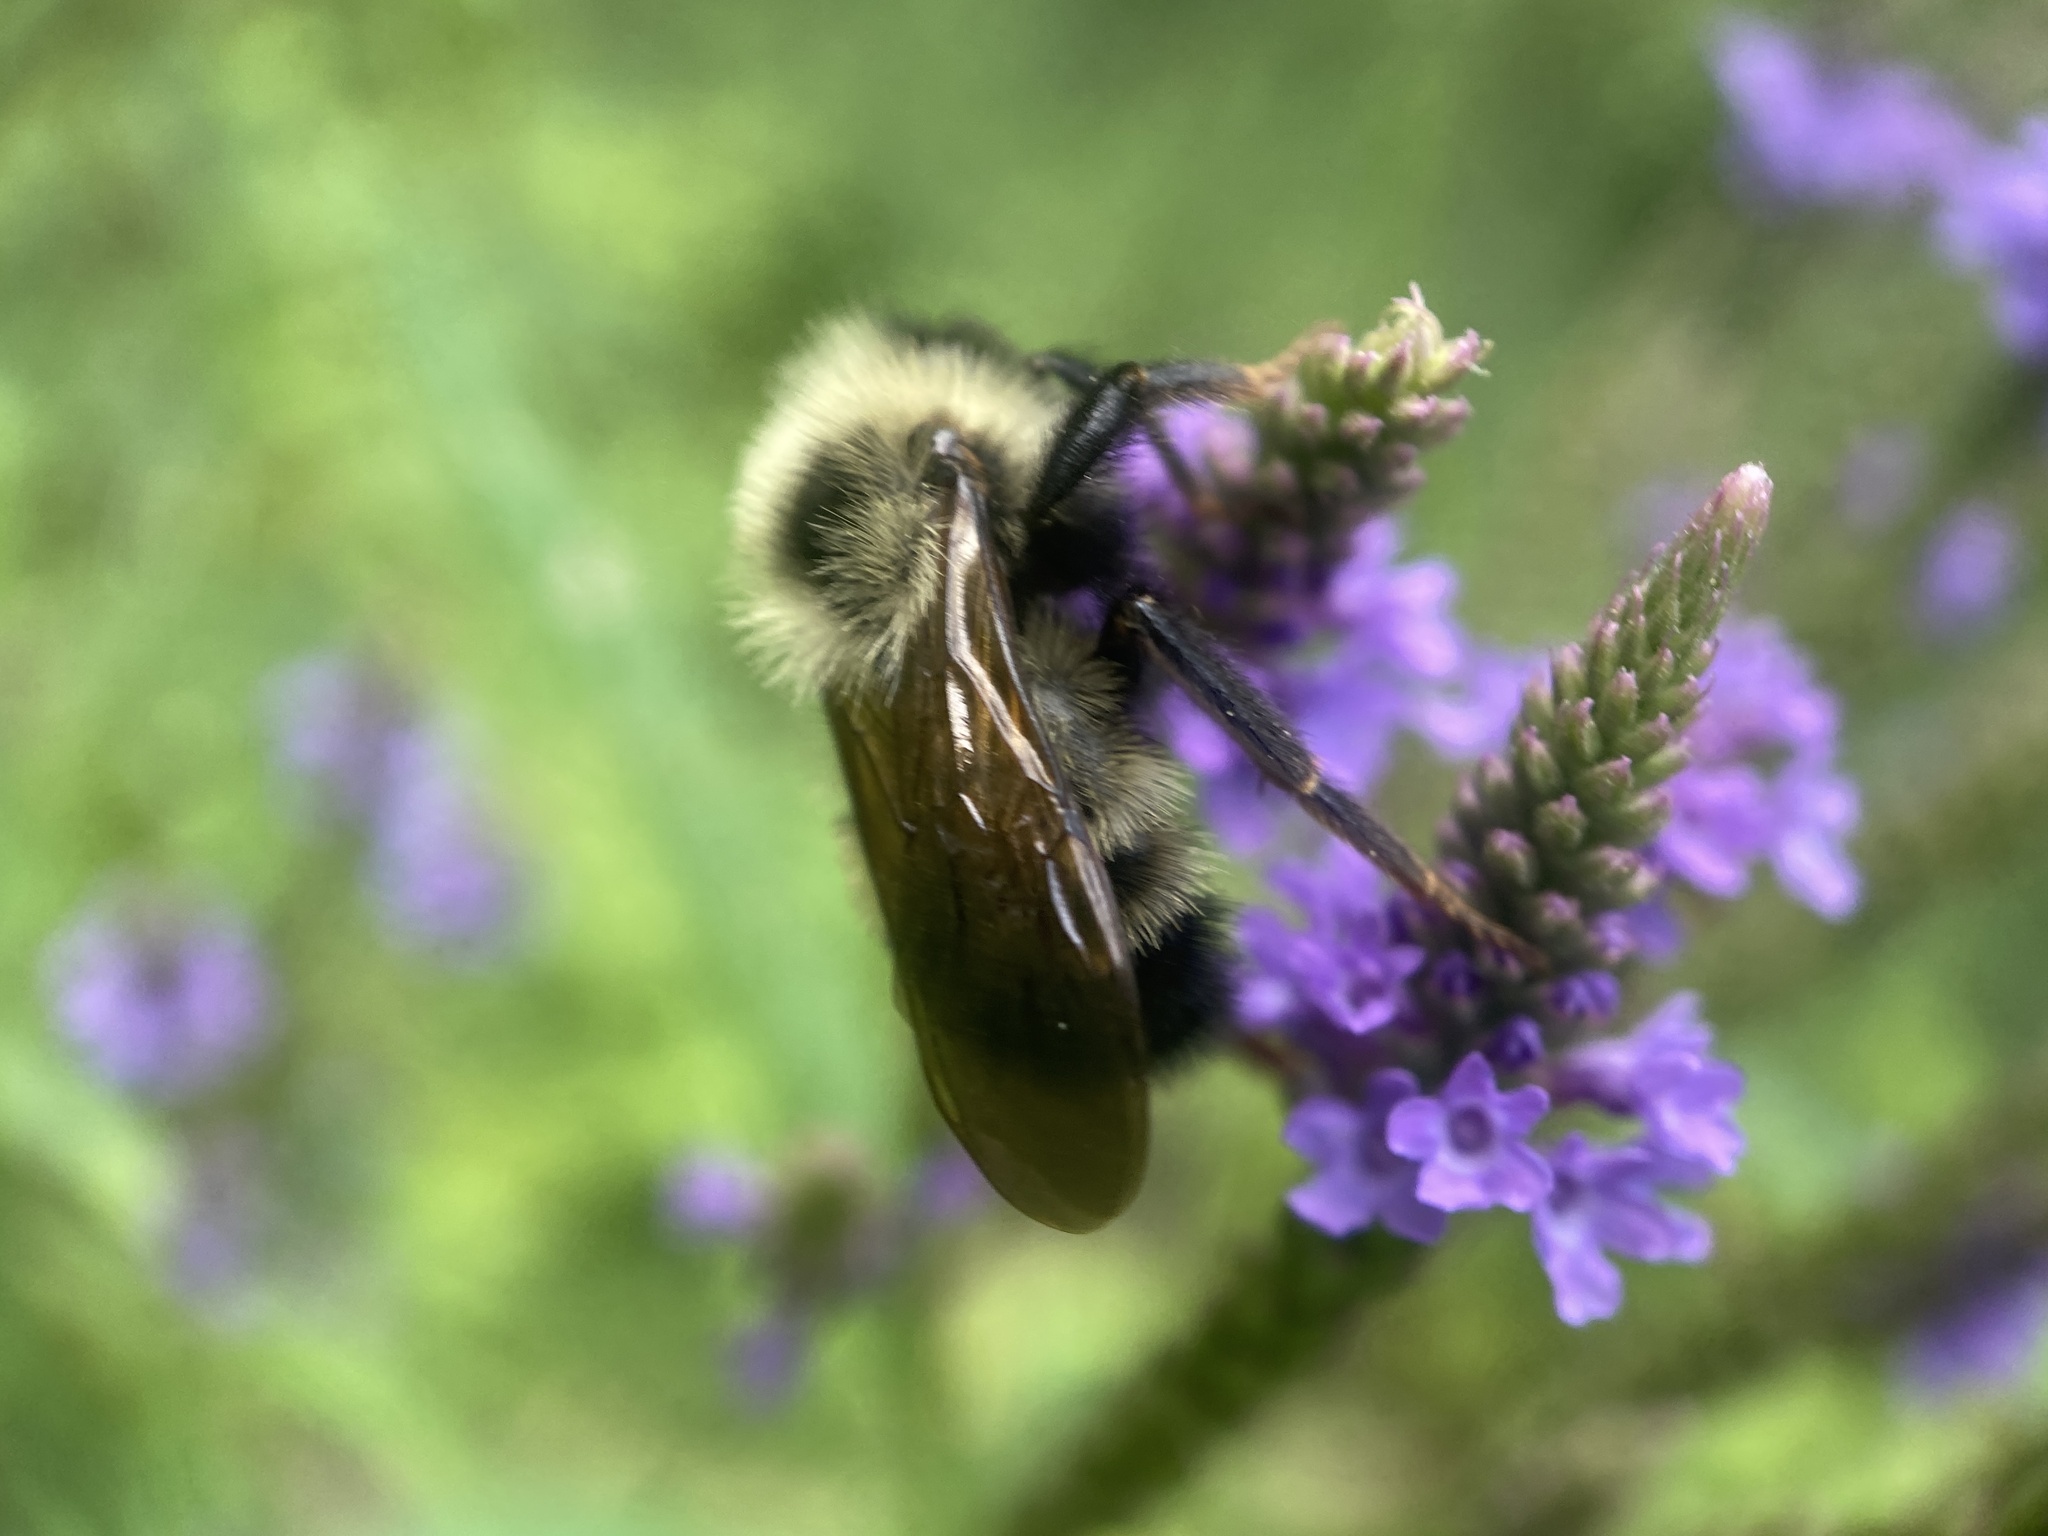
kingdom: Animalia
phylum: Arthropoda
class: Insecta
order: Hymenoptera
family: Apidae
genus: Bombus
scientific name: Bombus citrinus
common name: Lemon cuckoo bumble bee
